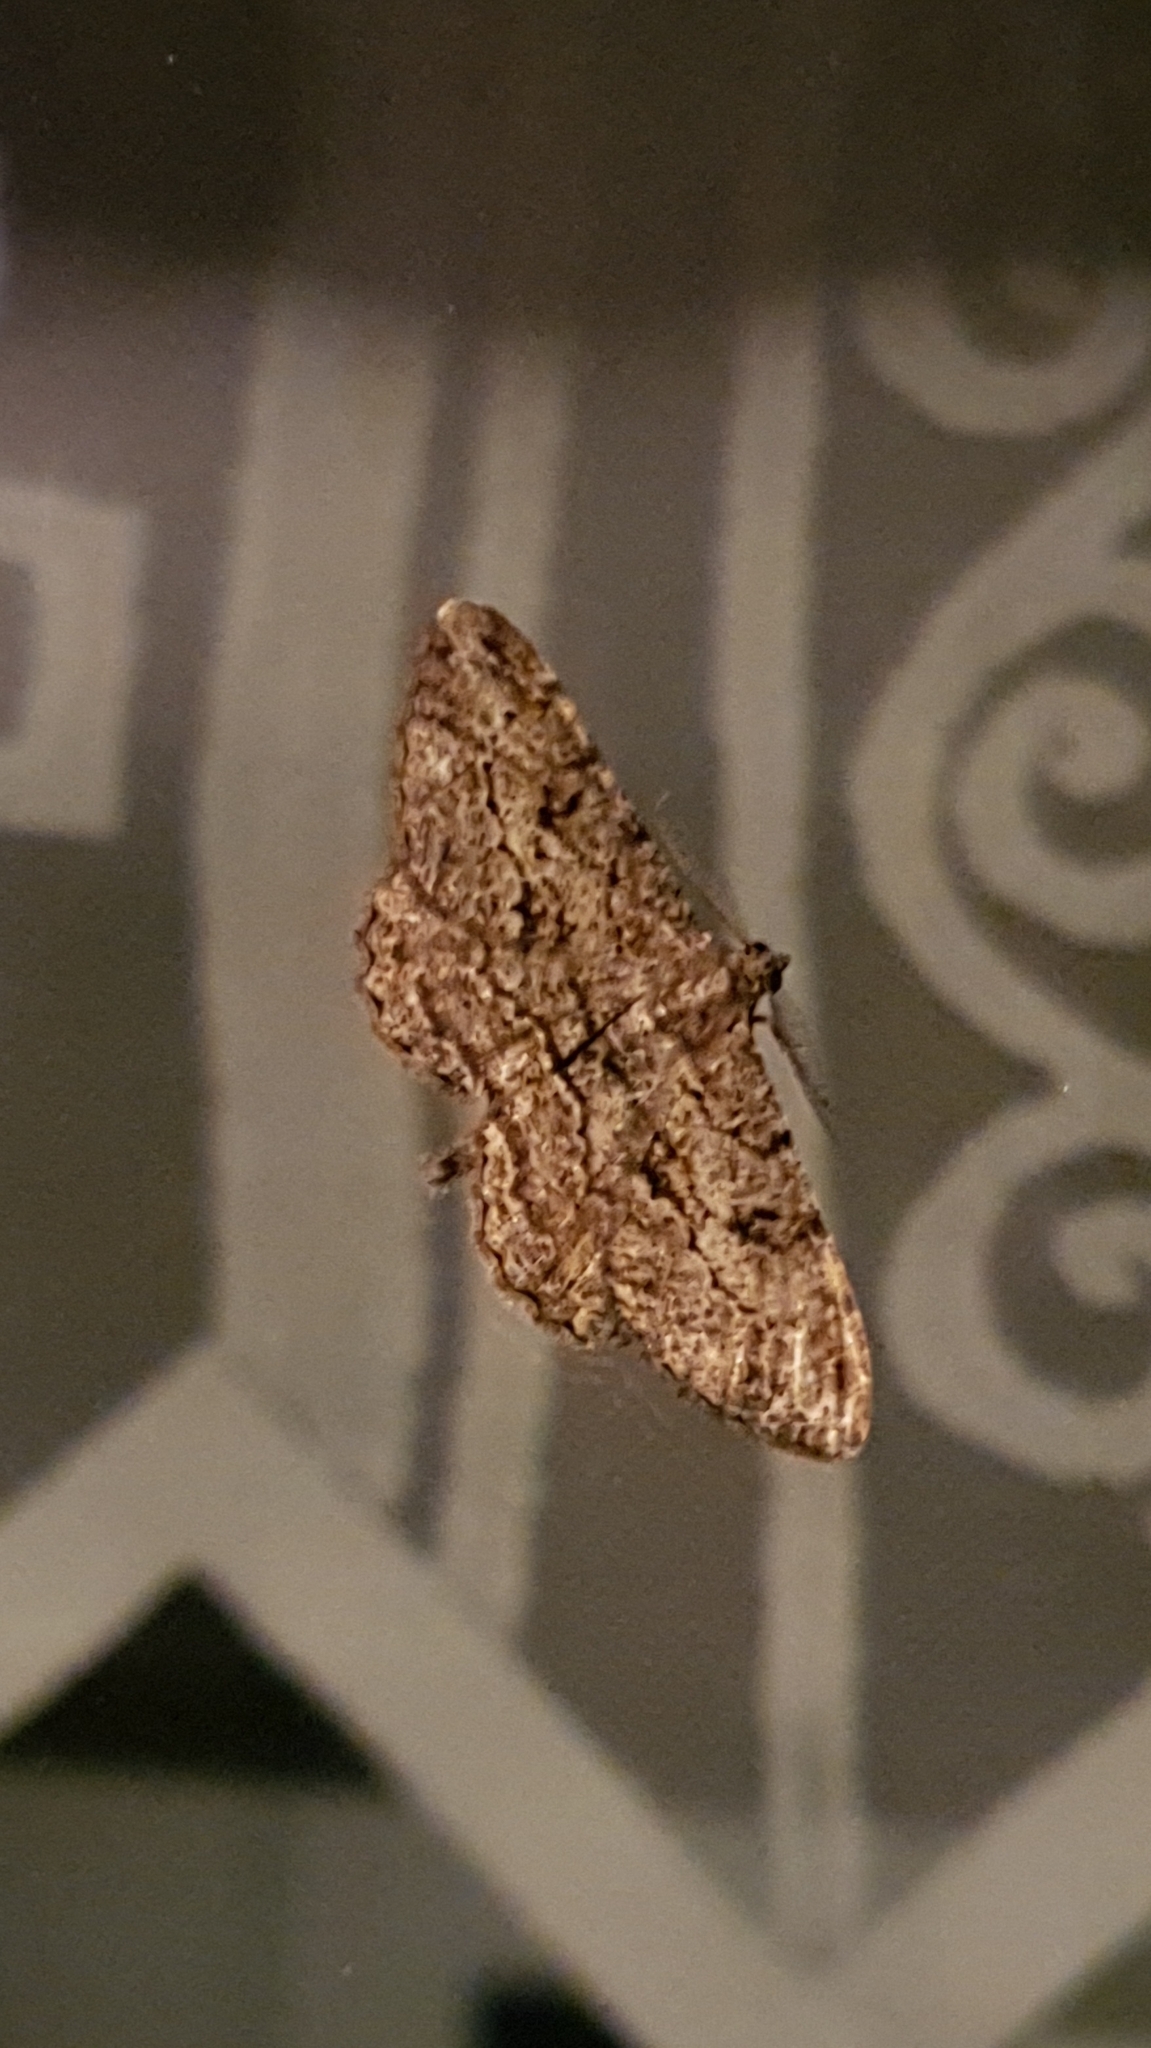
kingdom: Animalia
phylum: Arthropoda
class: Insecta
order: Lepidoptera
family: Geometridae
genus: Peribatodes
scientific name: Peribatodes rhomboidaria
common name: Willow beauty
